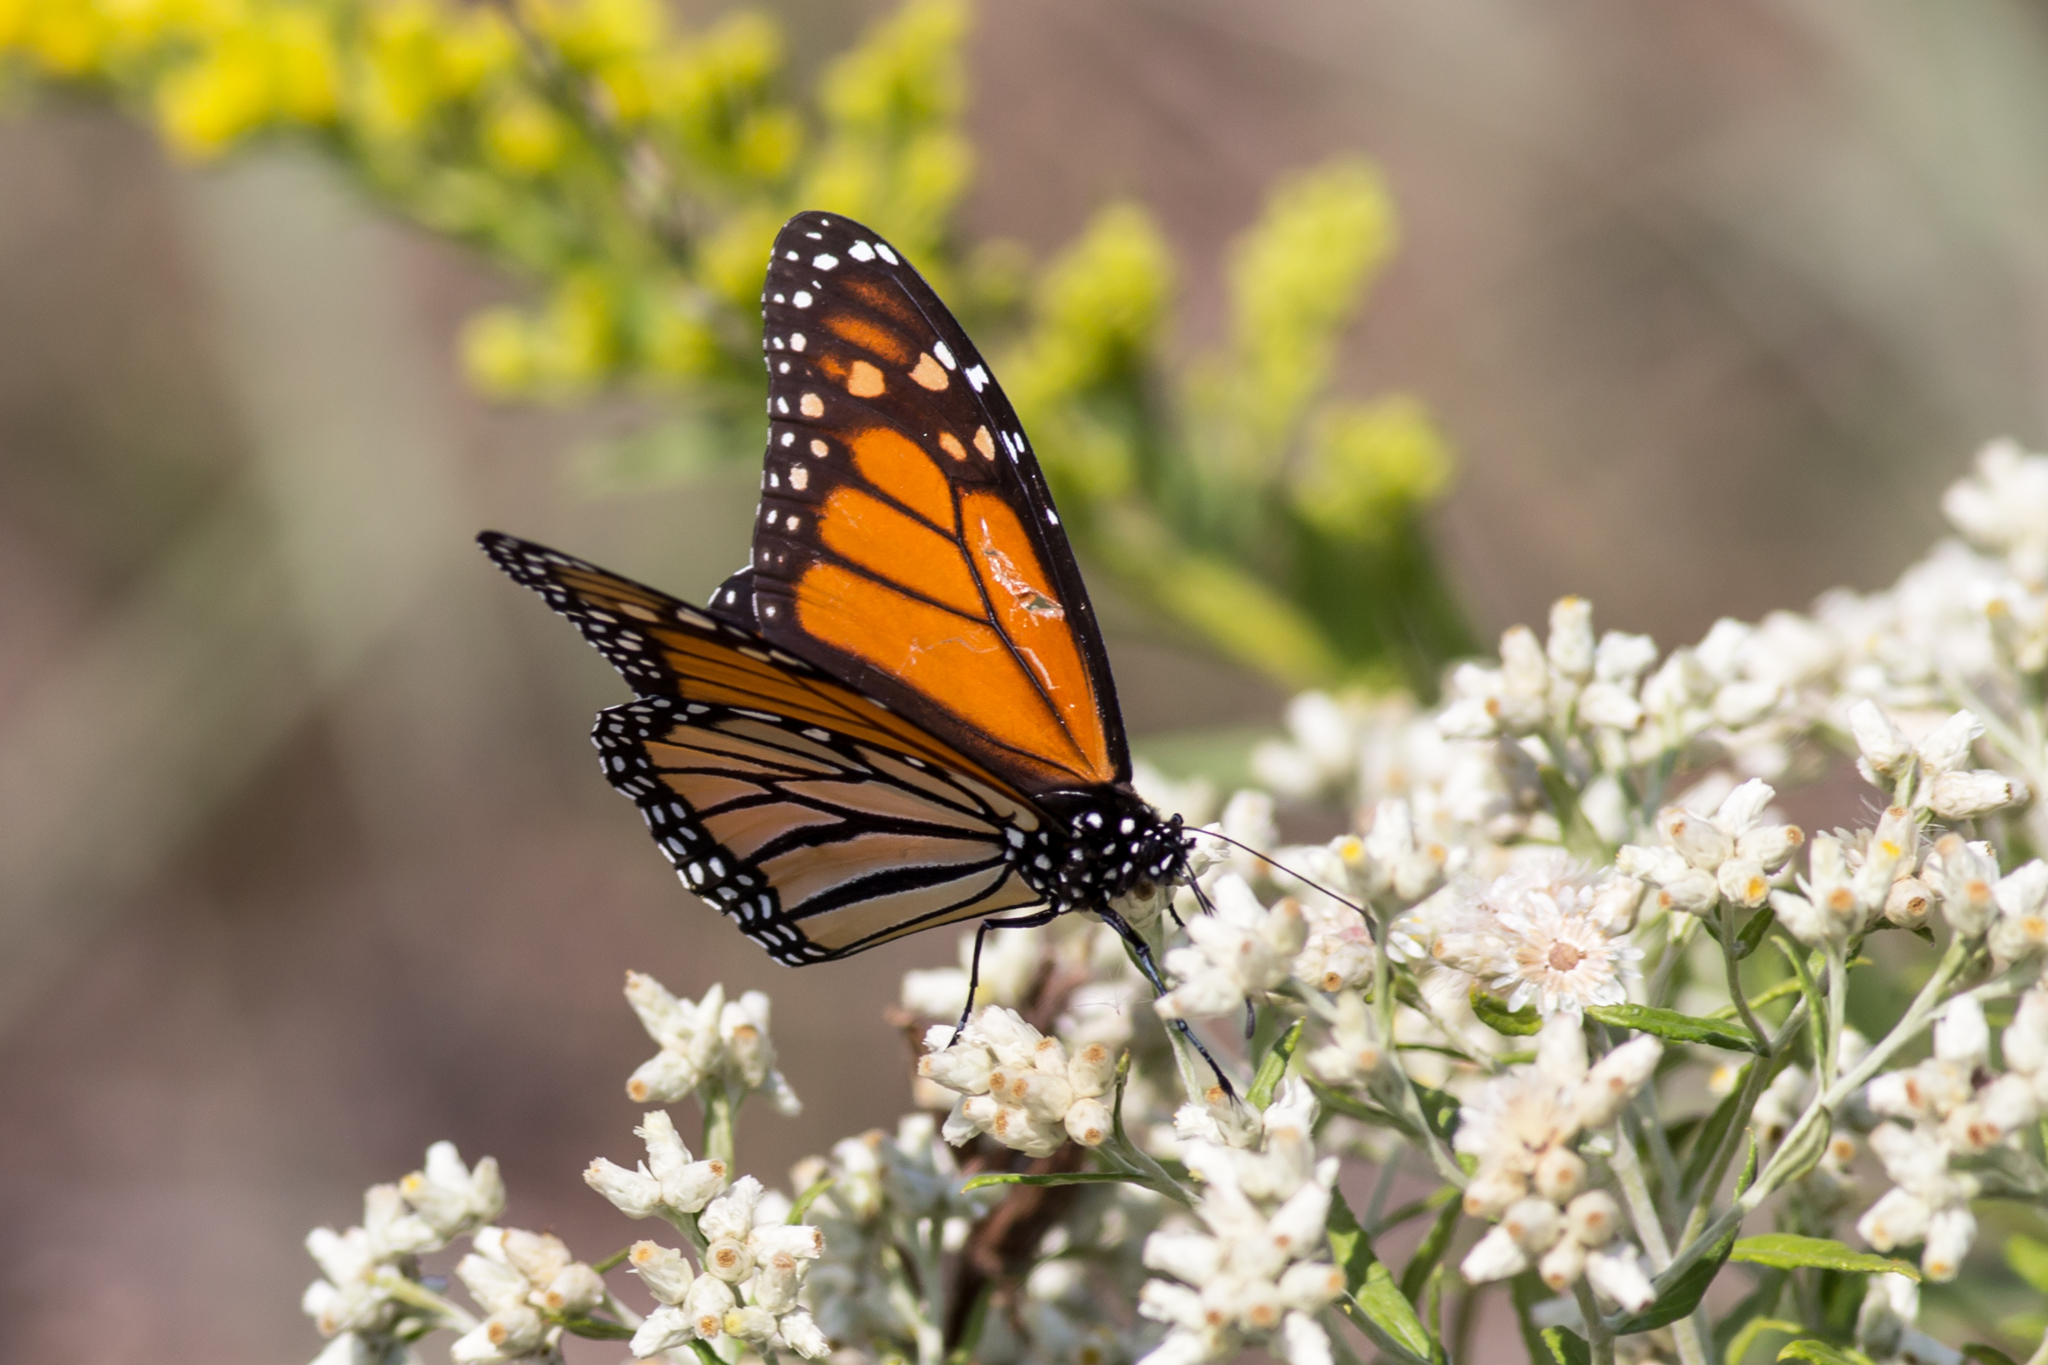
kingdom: Animalia
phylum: Arthropoda
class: Insecta
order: Lepidoptera
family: Nymphalidae
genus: Danaus
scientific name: Danaus plexippus
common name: Monarch
